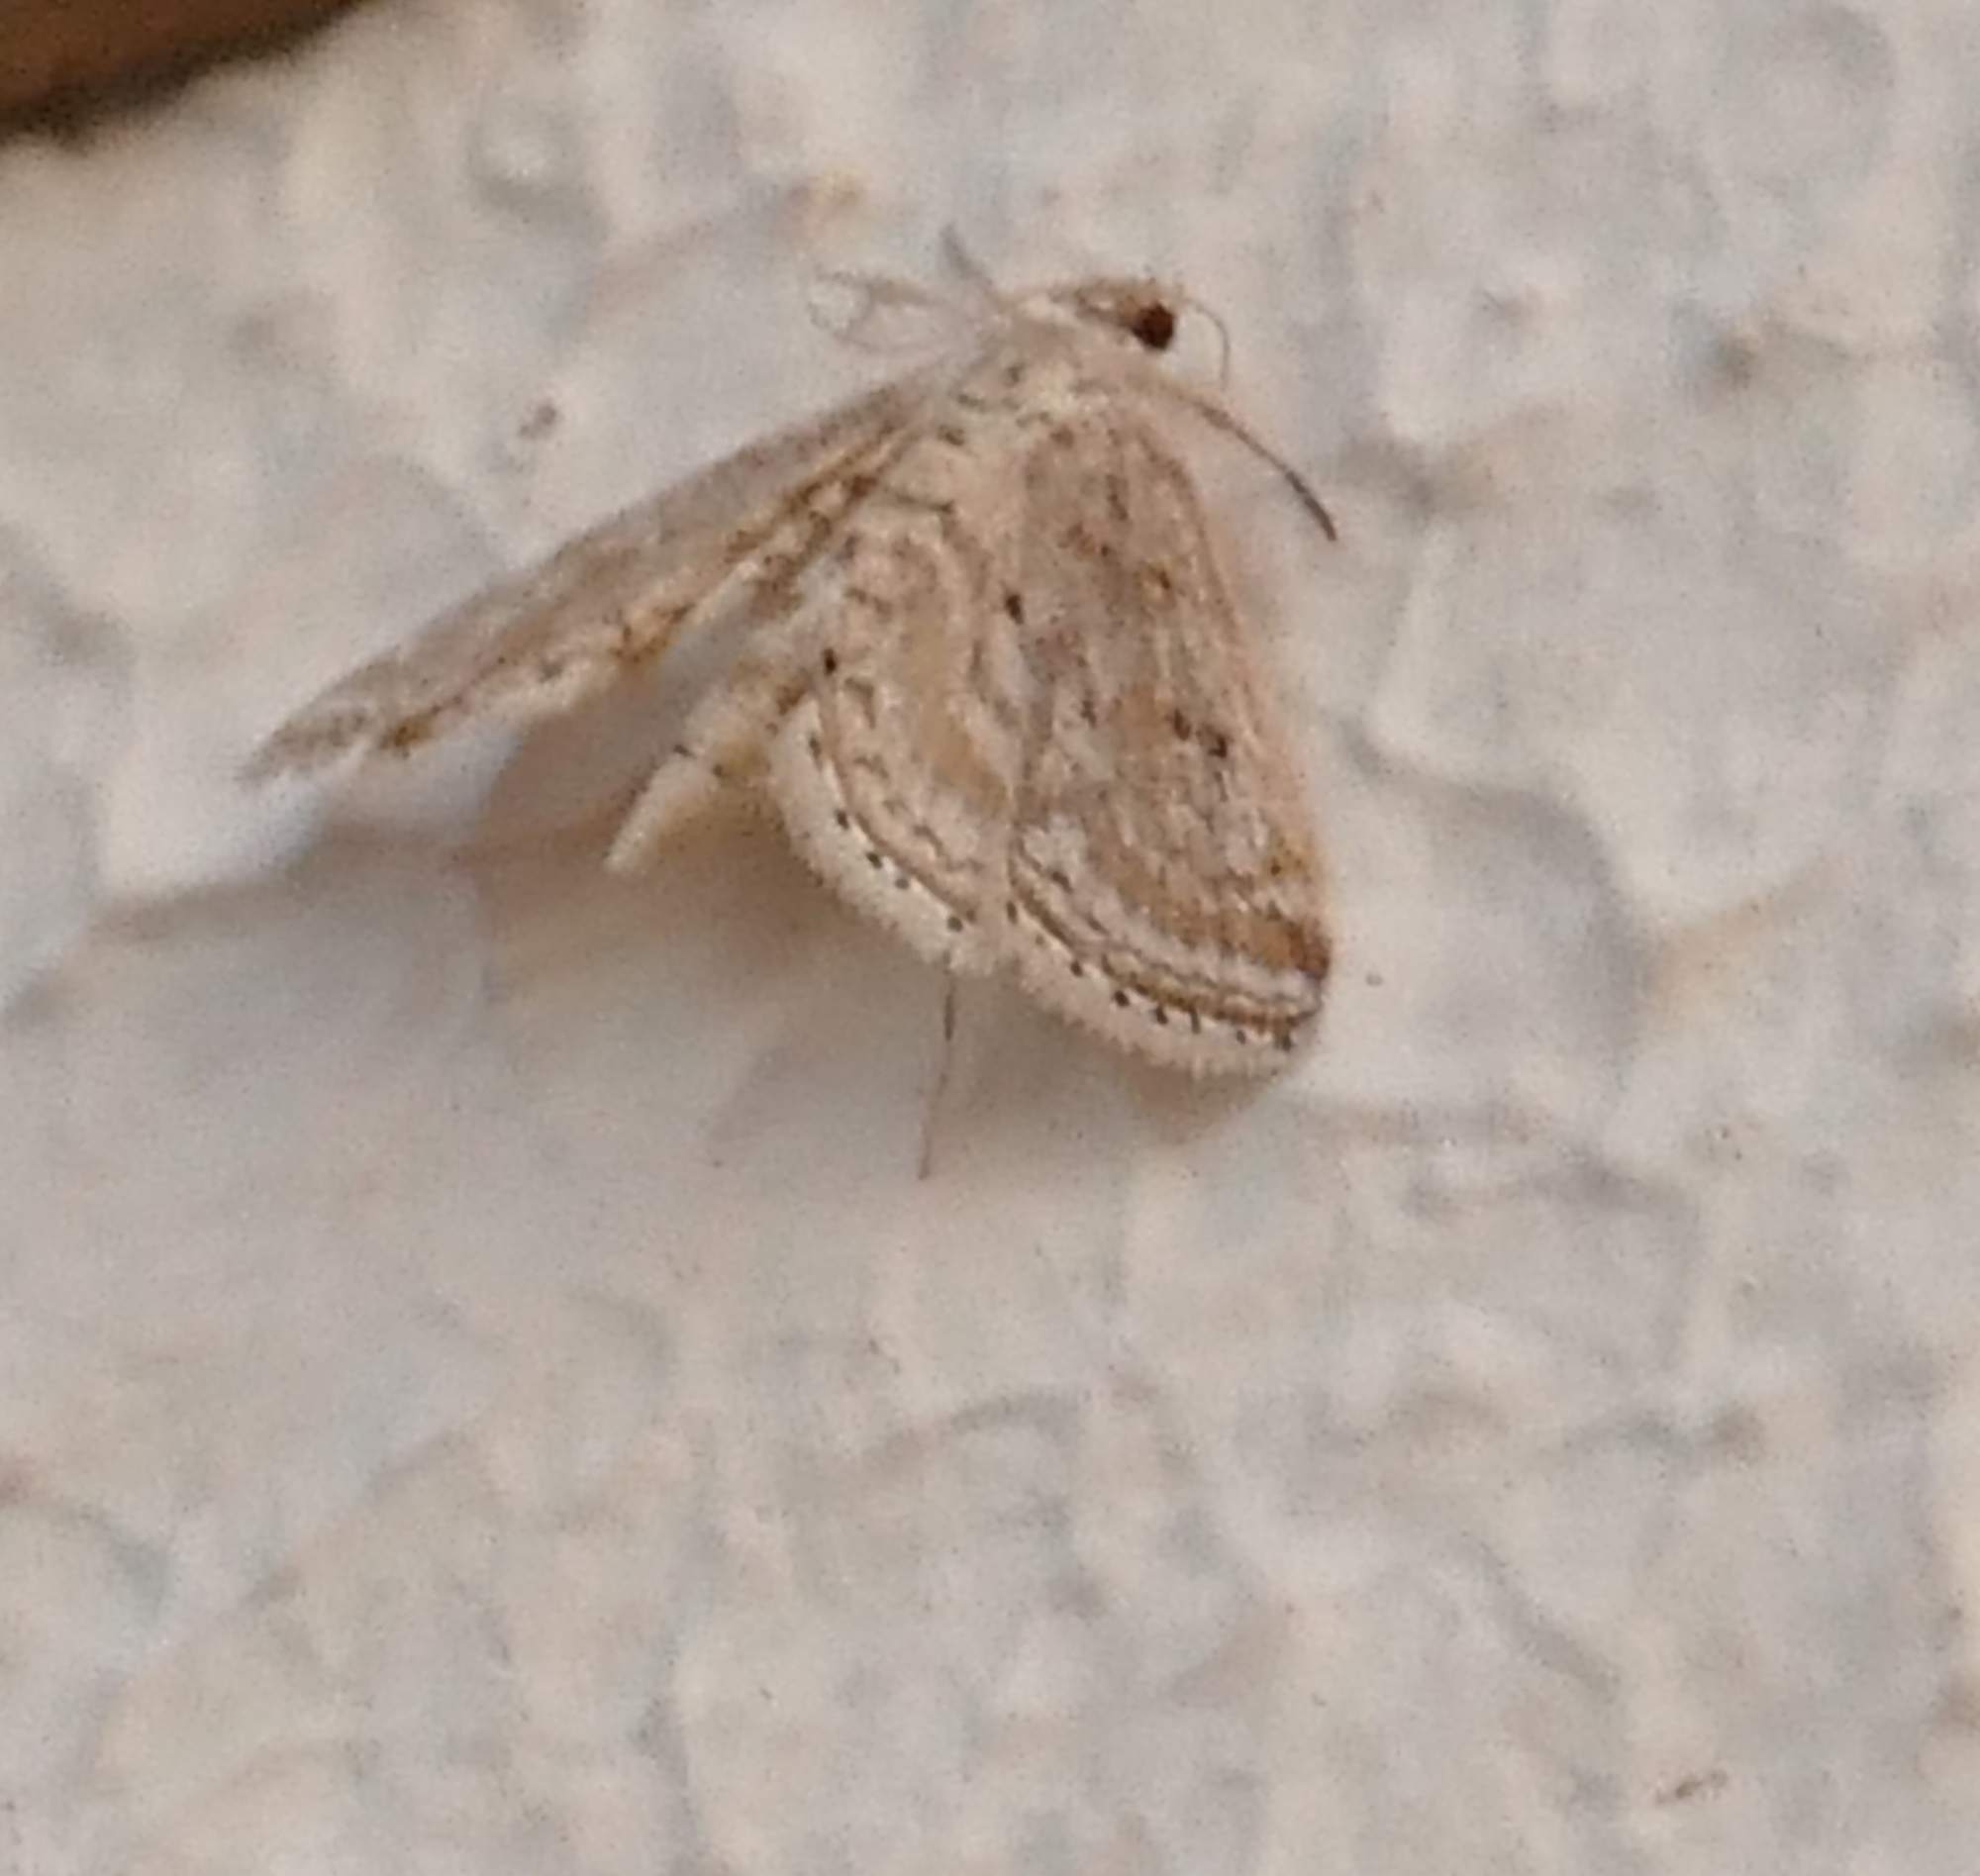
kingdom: Animalia
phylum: Arthropoda
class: Insecta
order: Lepidoptera
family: Crambidae
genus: Parapoynx
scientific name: Parapoynx allionealis
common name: Bladderwort casemaker
